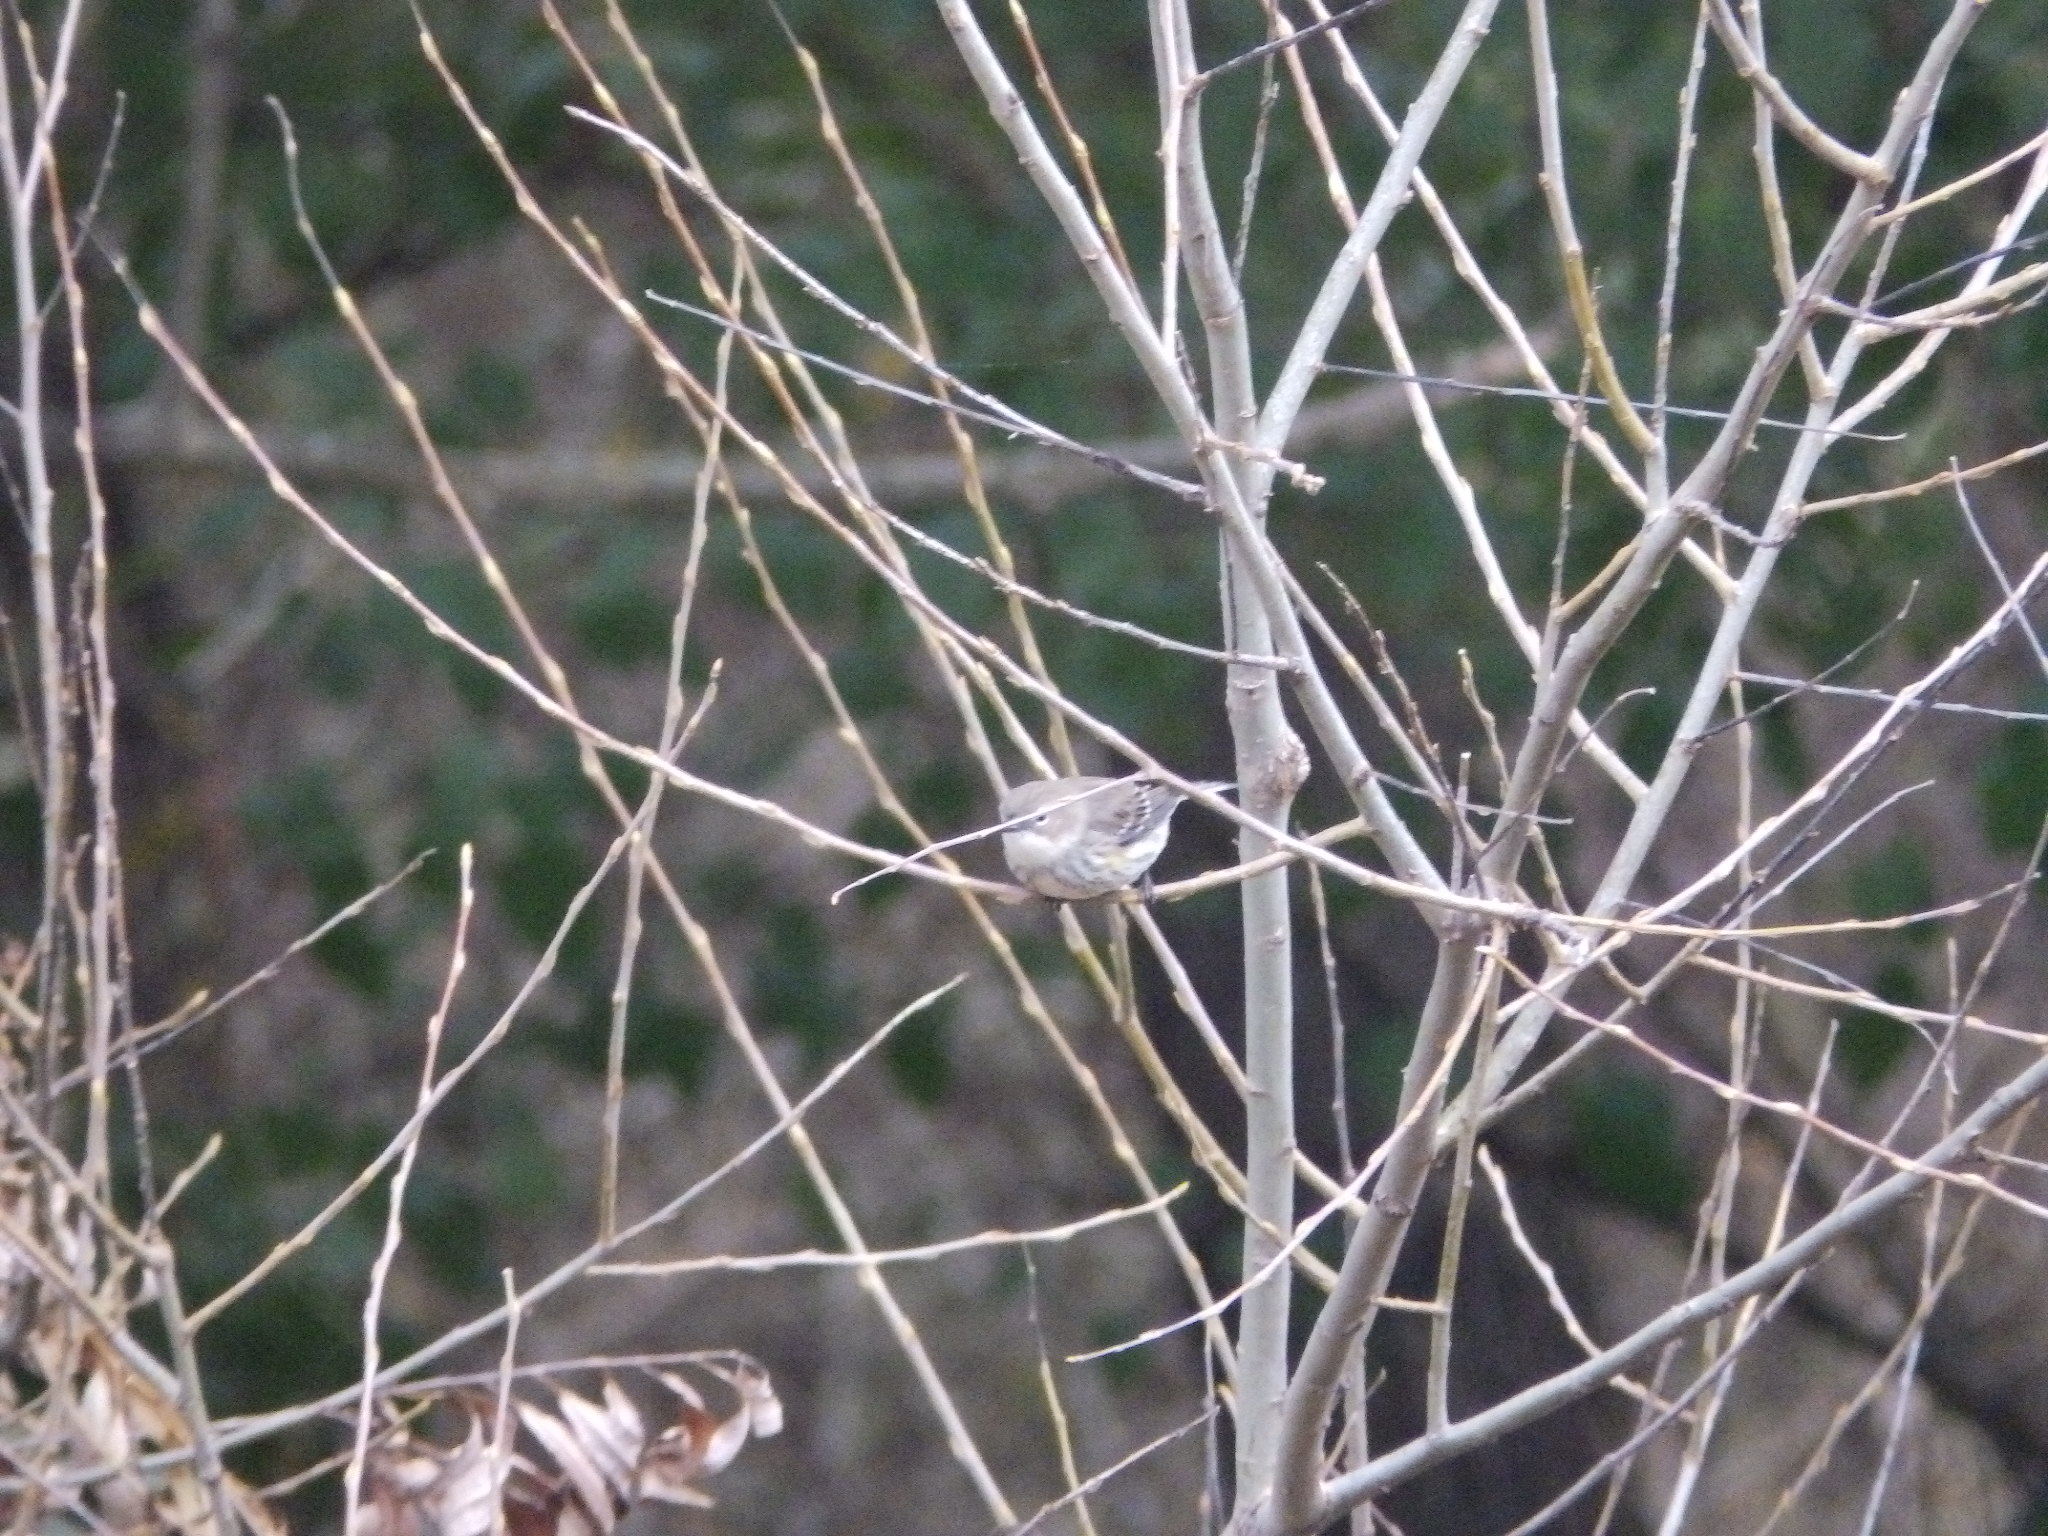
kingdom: Animalia
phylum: Chordata
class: Aves
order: Passeriformes
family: Parulidae
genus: Setophaga
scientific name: Setophaga coronata
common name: Myrtle warbler
